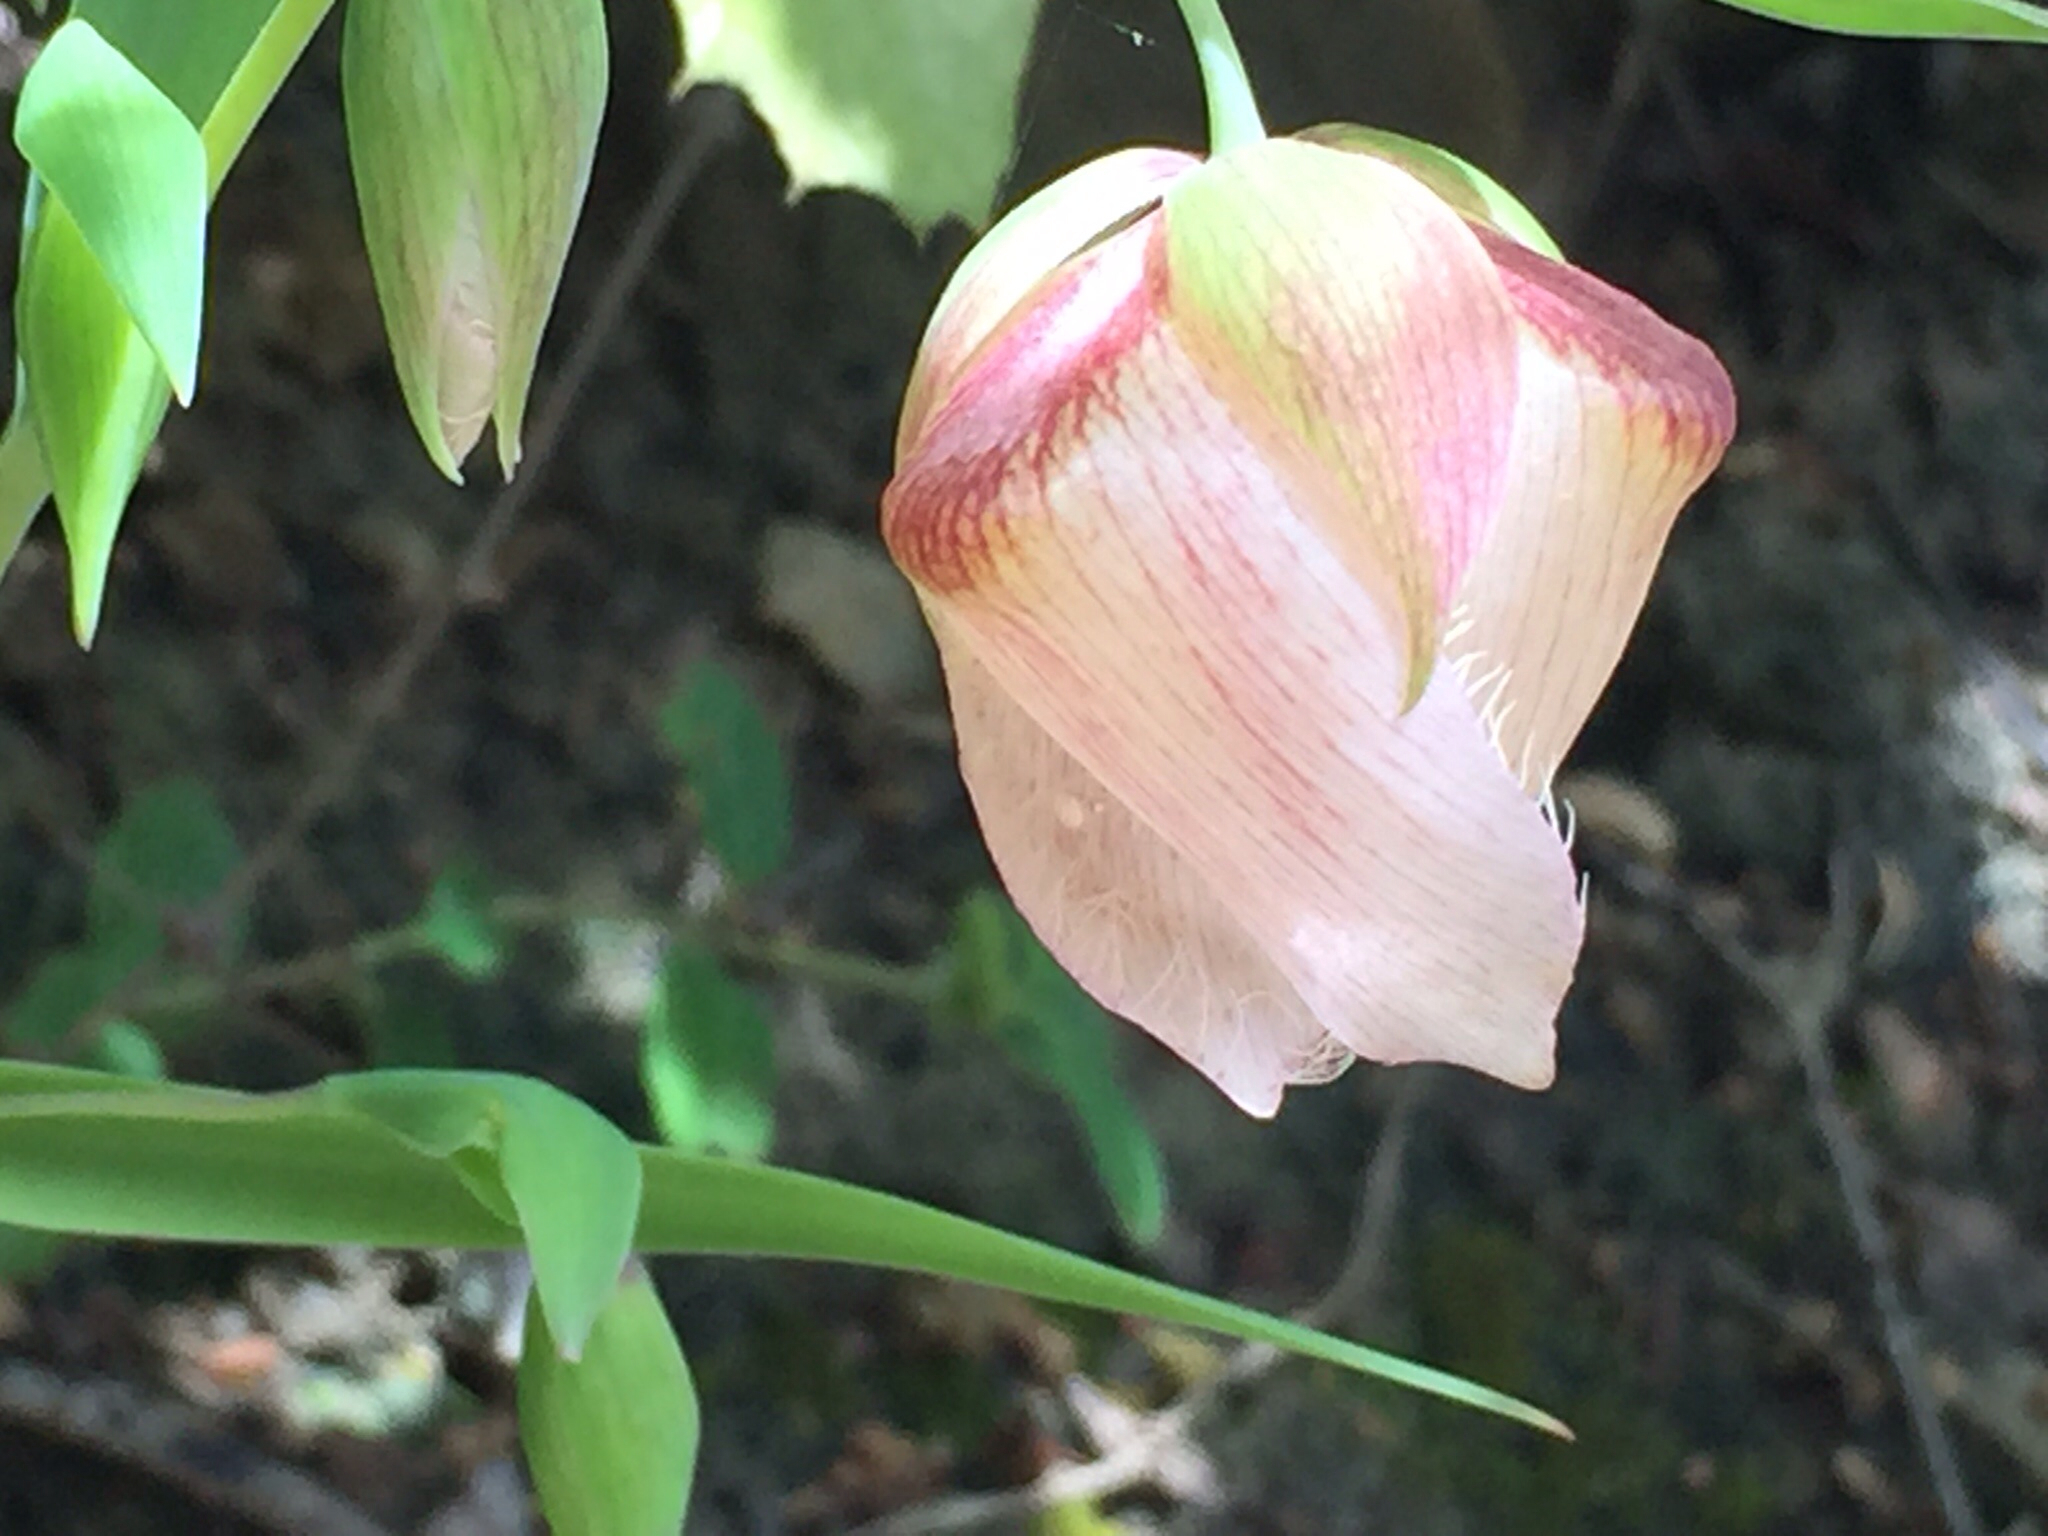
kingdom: Plantae
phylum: Tracheophyta
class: Liliopsida
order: Liliales
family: Liliaceae
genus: Calochortus
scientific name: Calochortus albus
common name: Fairy-lantern
